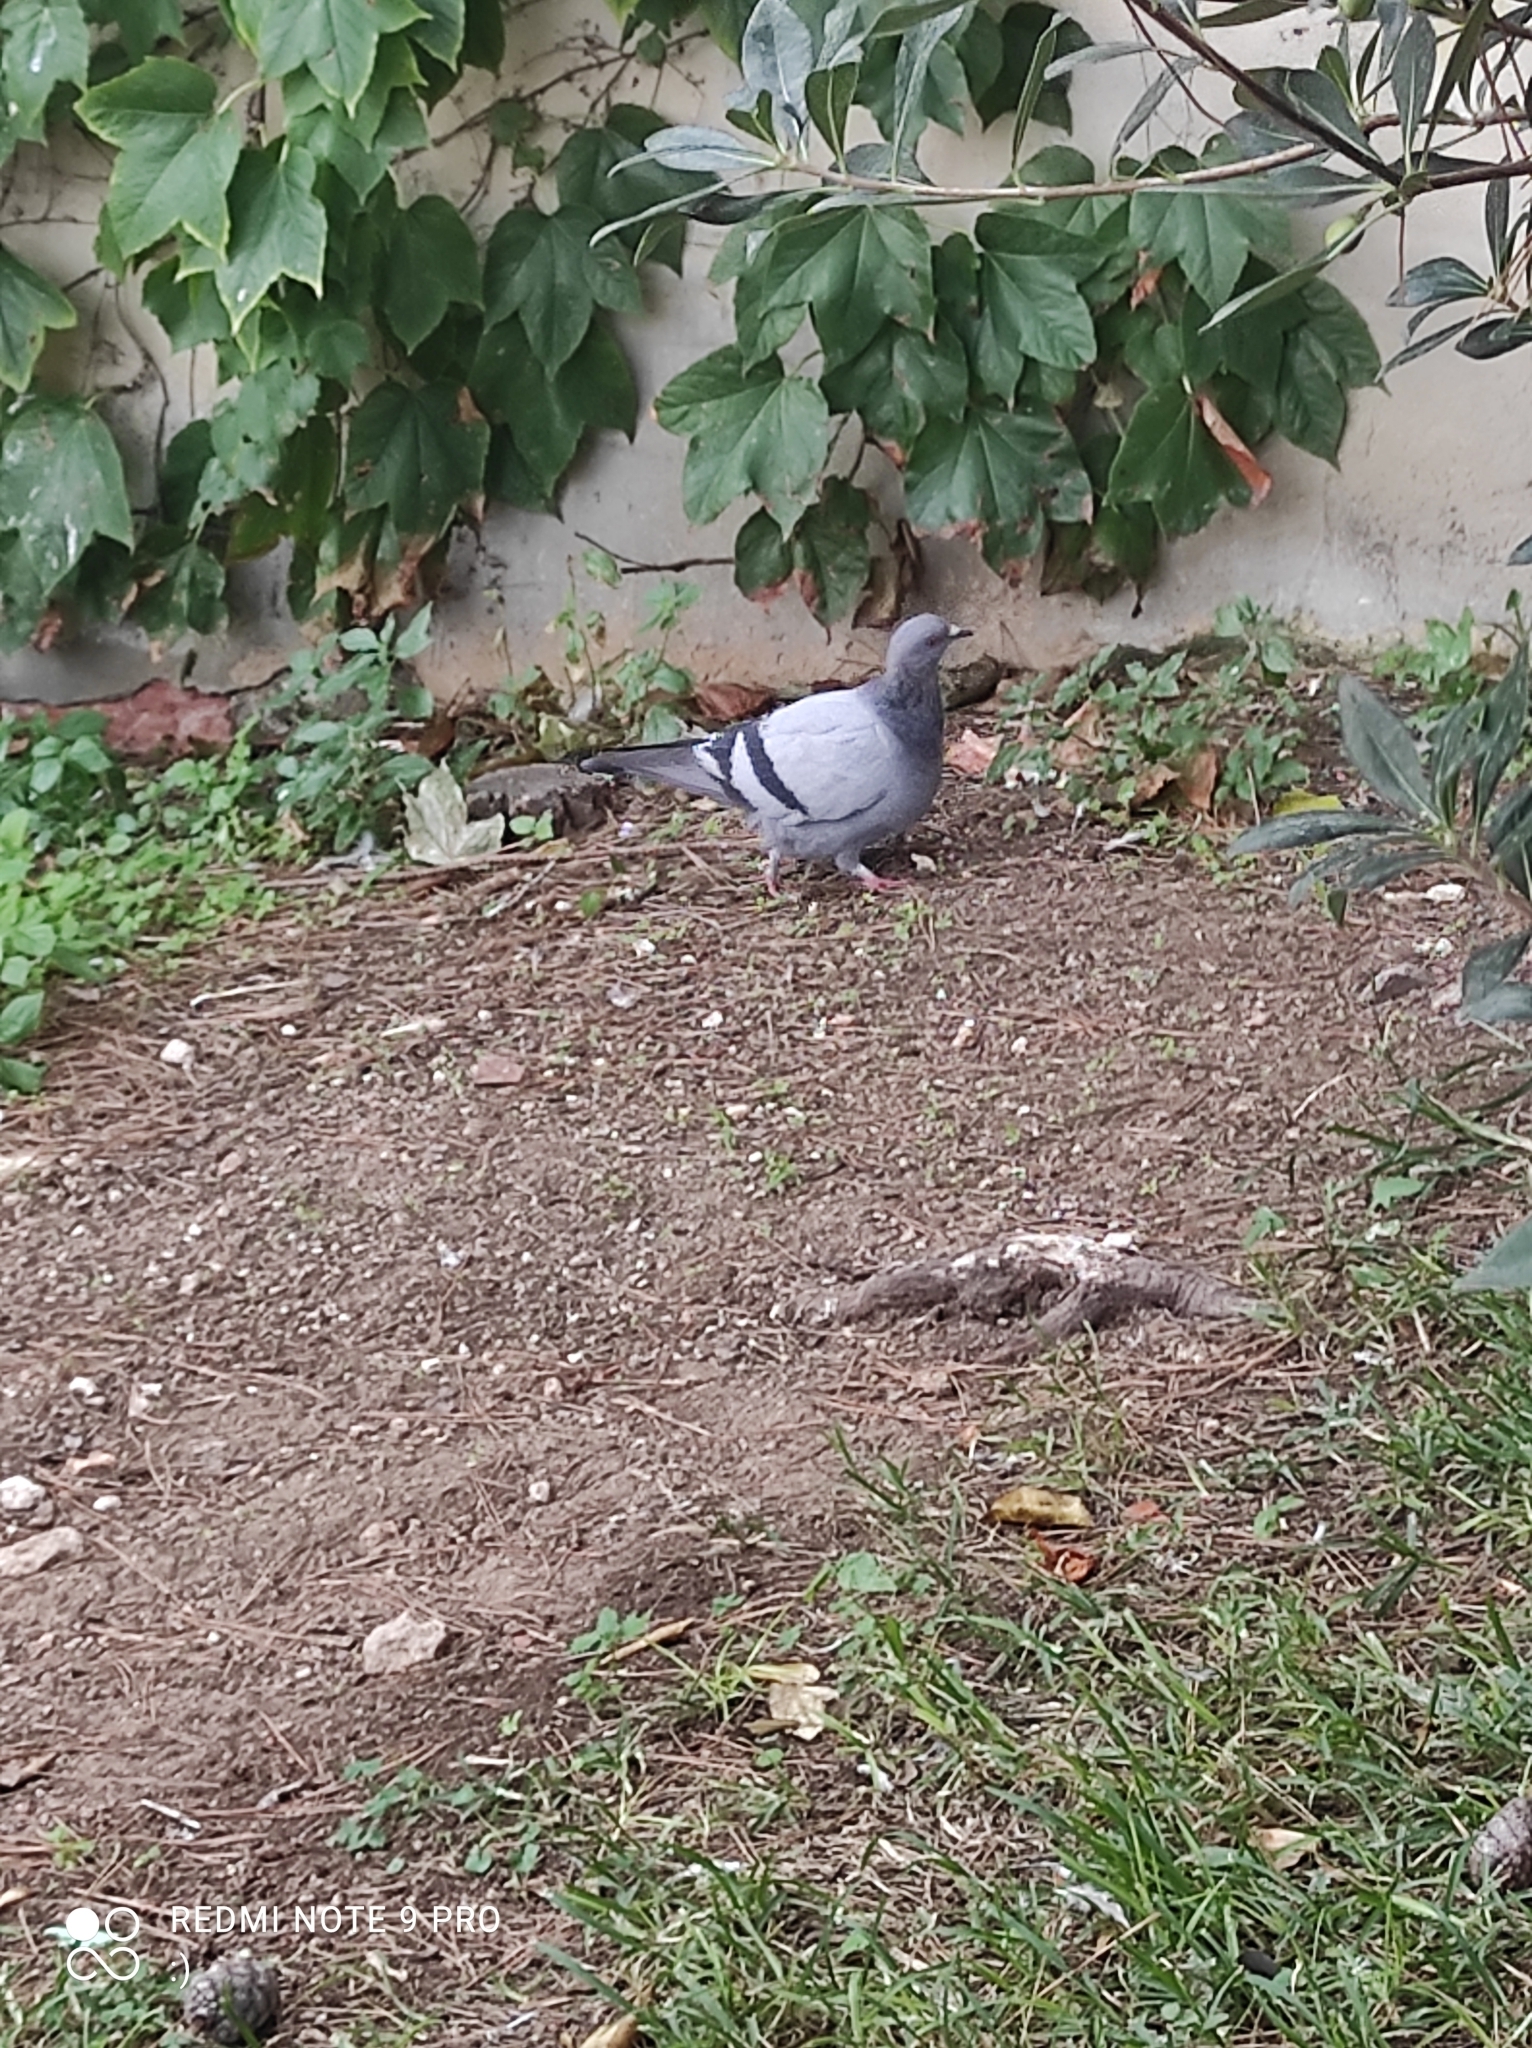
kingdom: Animalia
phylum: Chordata
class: Aves
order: Columbiformes
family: Columbidae
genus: Columba
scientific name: Columba livia
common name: Rock pigeon
